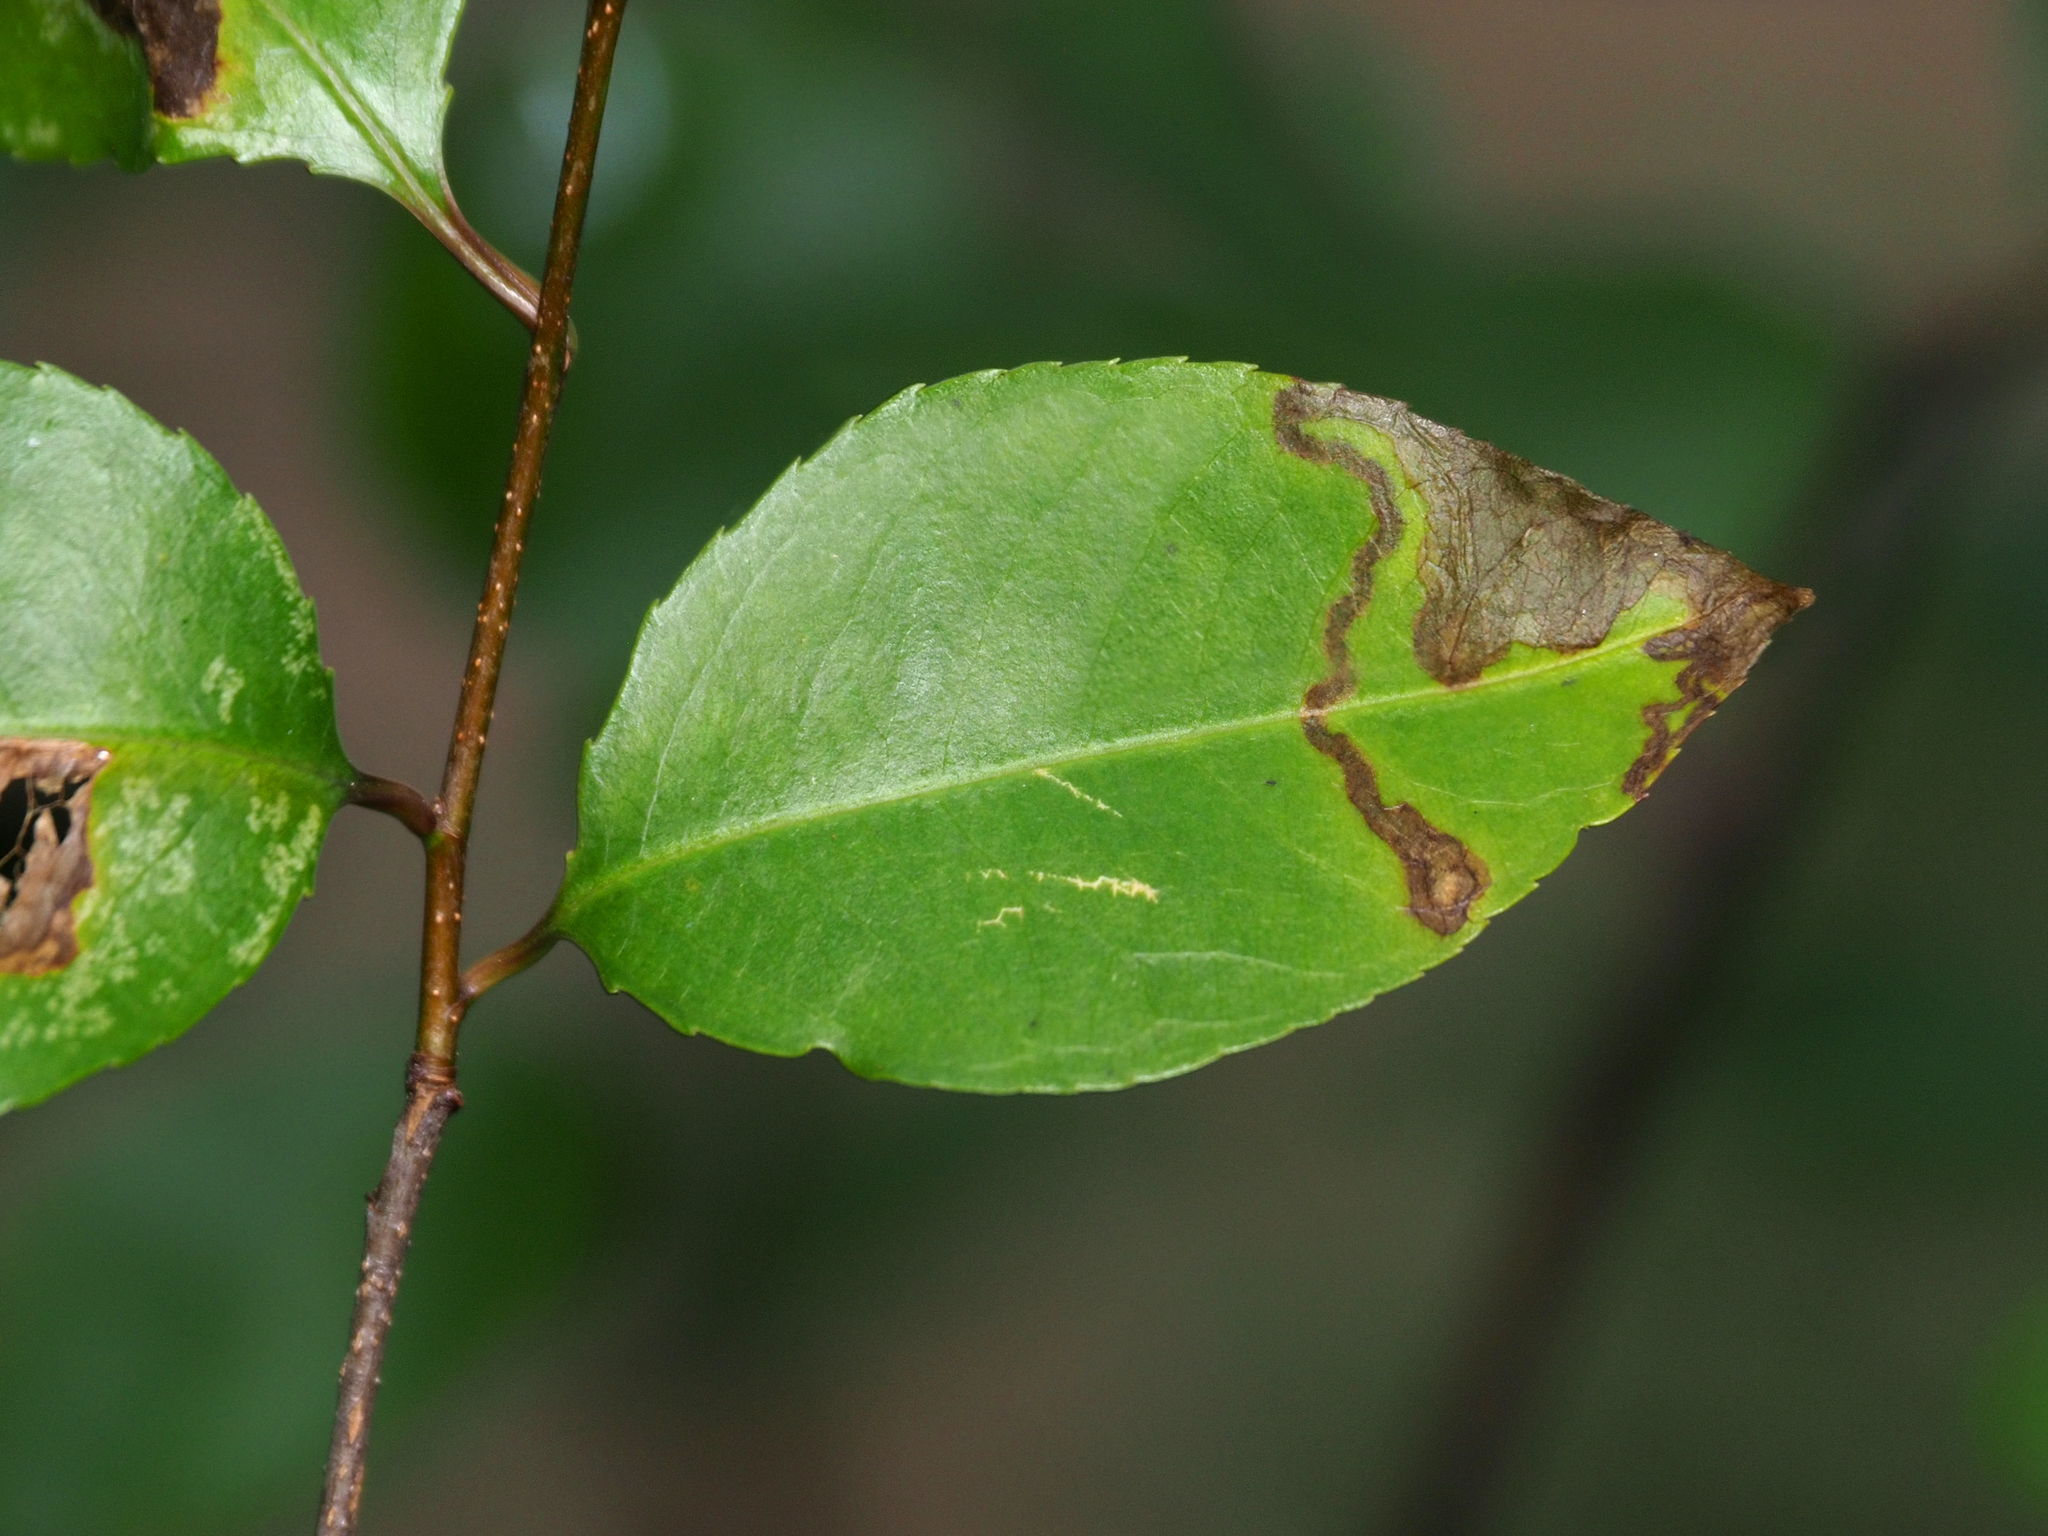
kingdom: Animalia
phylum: Arthropoda
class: Insecta
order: Lepidoptera
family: Nepticulidae
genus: Stigmella
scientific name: Stigmella prunifoliella
